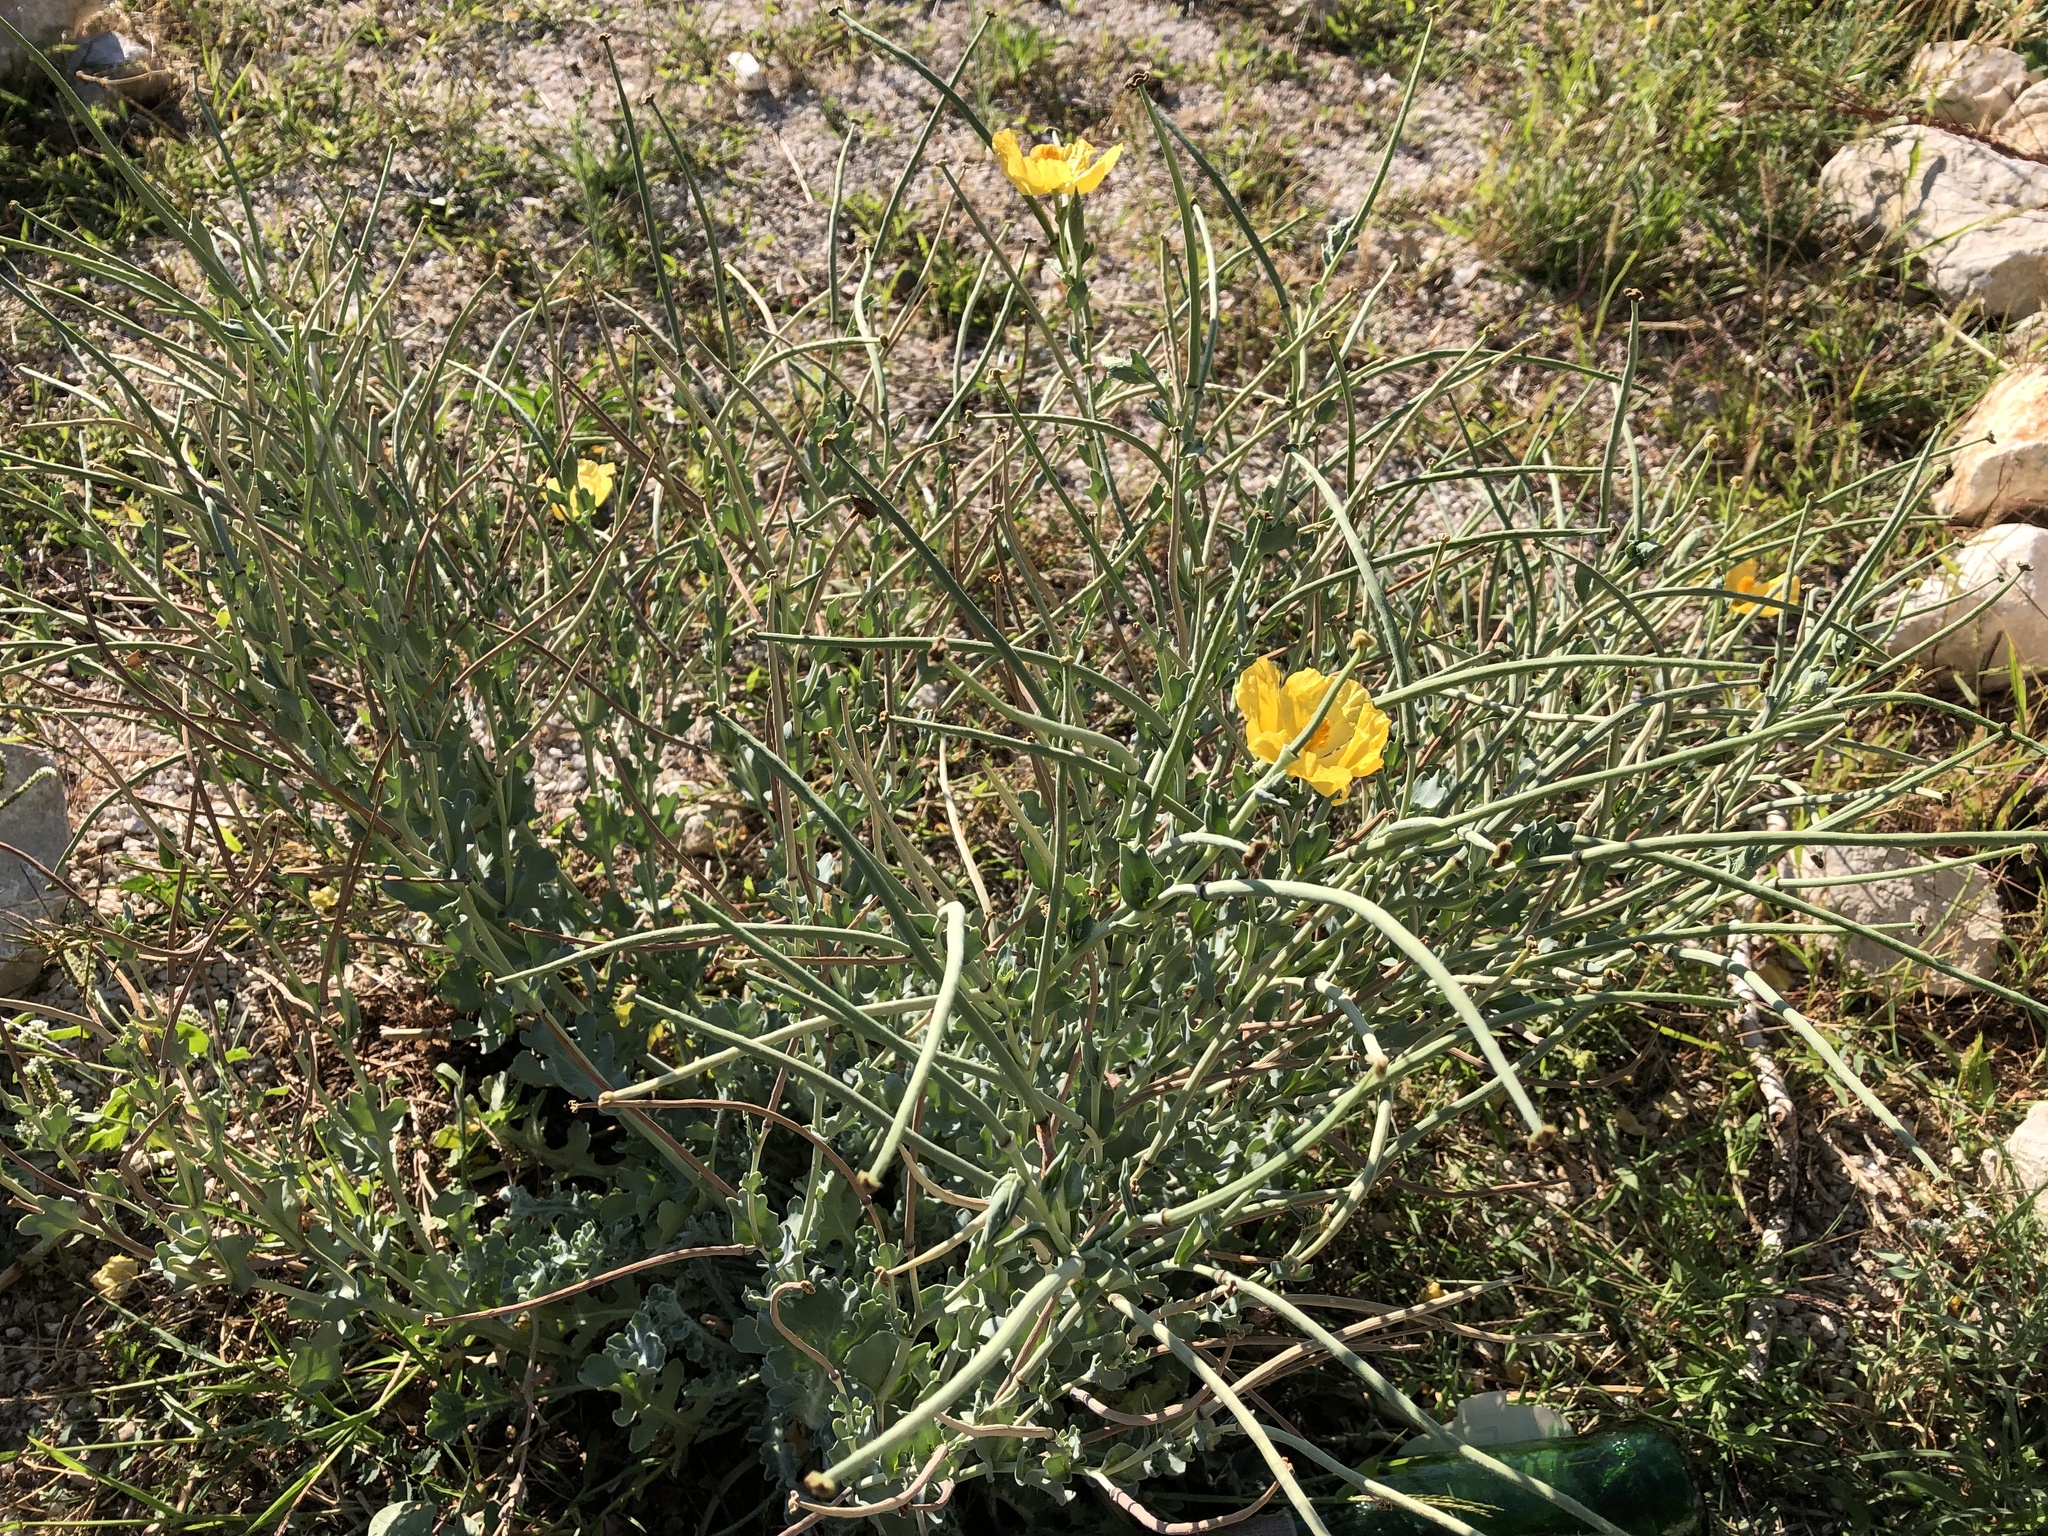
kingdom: Plantae
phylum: Tracheophyta
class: Magnoliopsida
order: Ranunculales
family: Papaveraceae
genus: Glaucium
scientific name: Glaucium flavum
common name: Yellow horned-poppy
